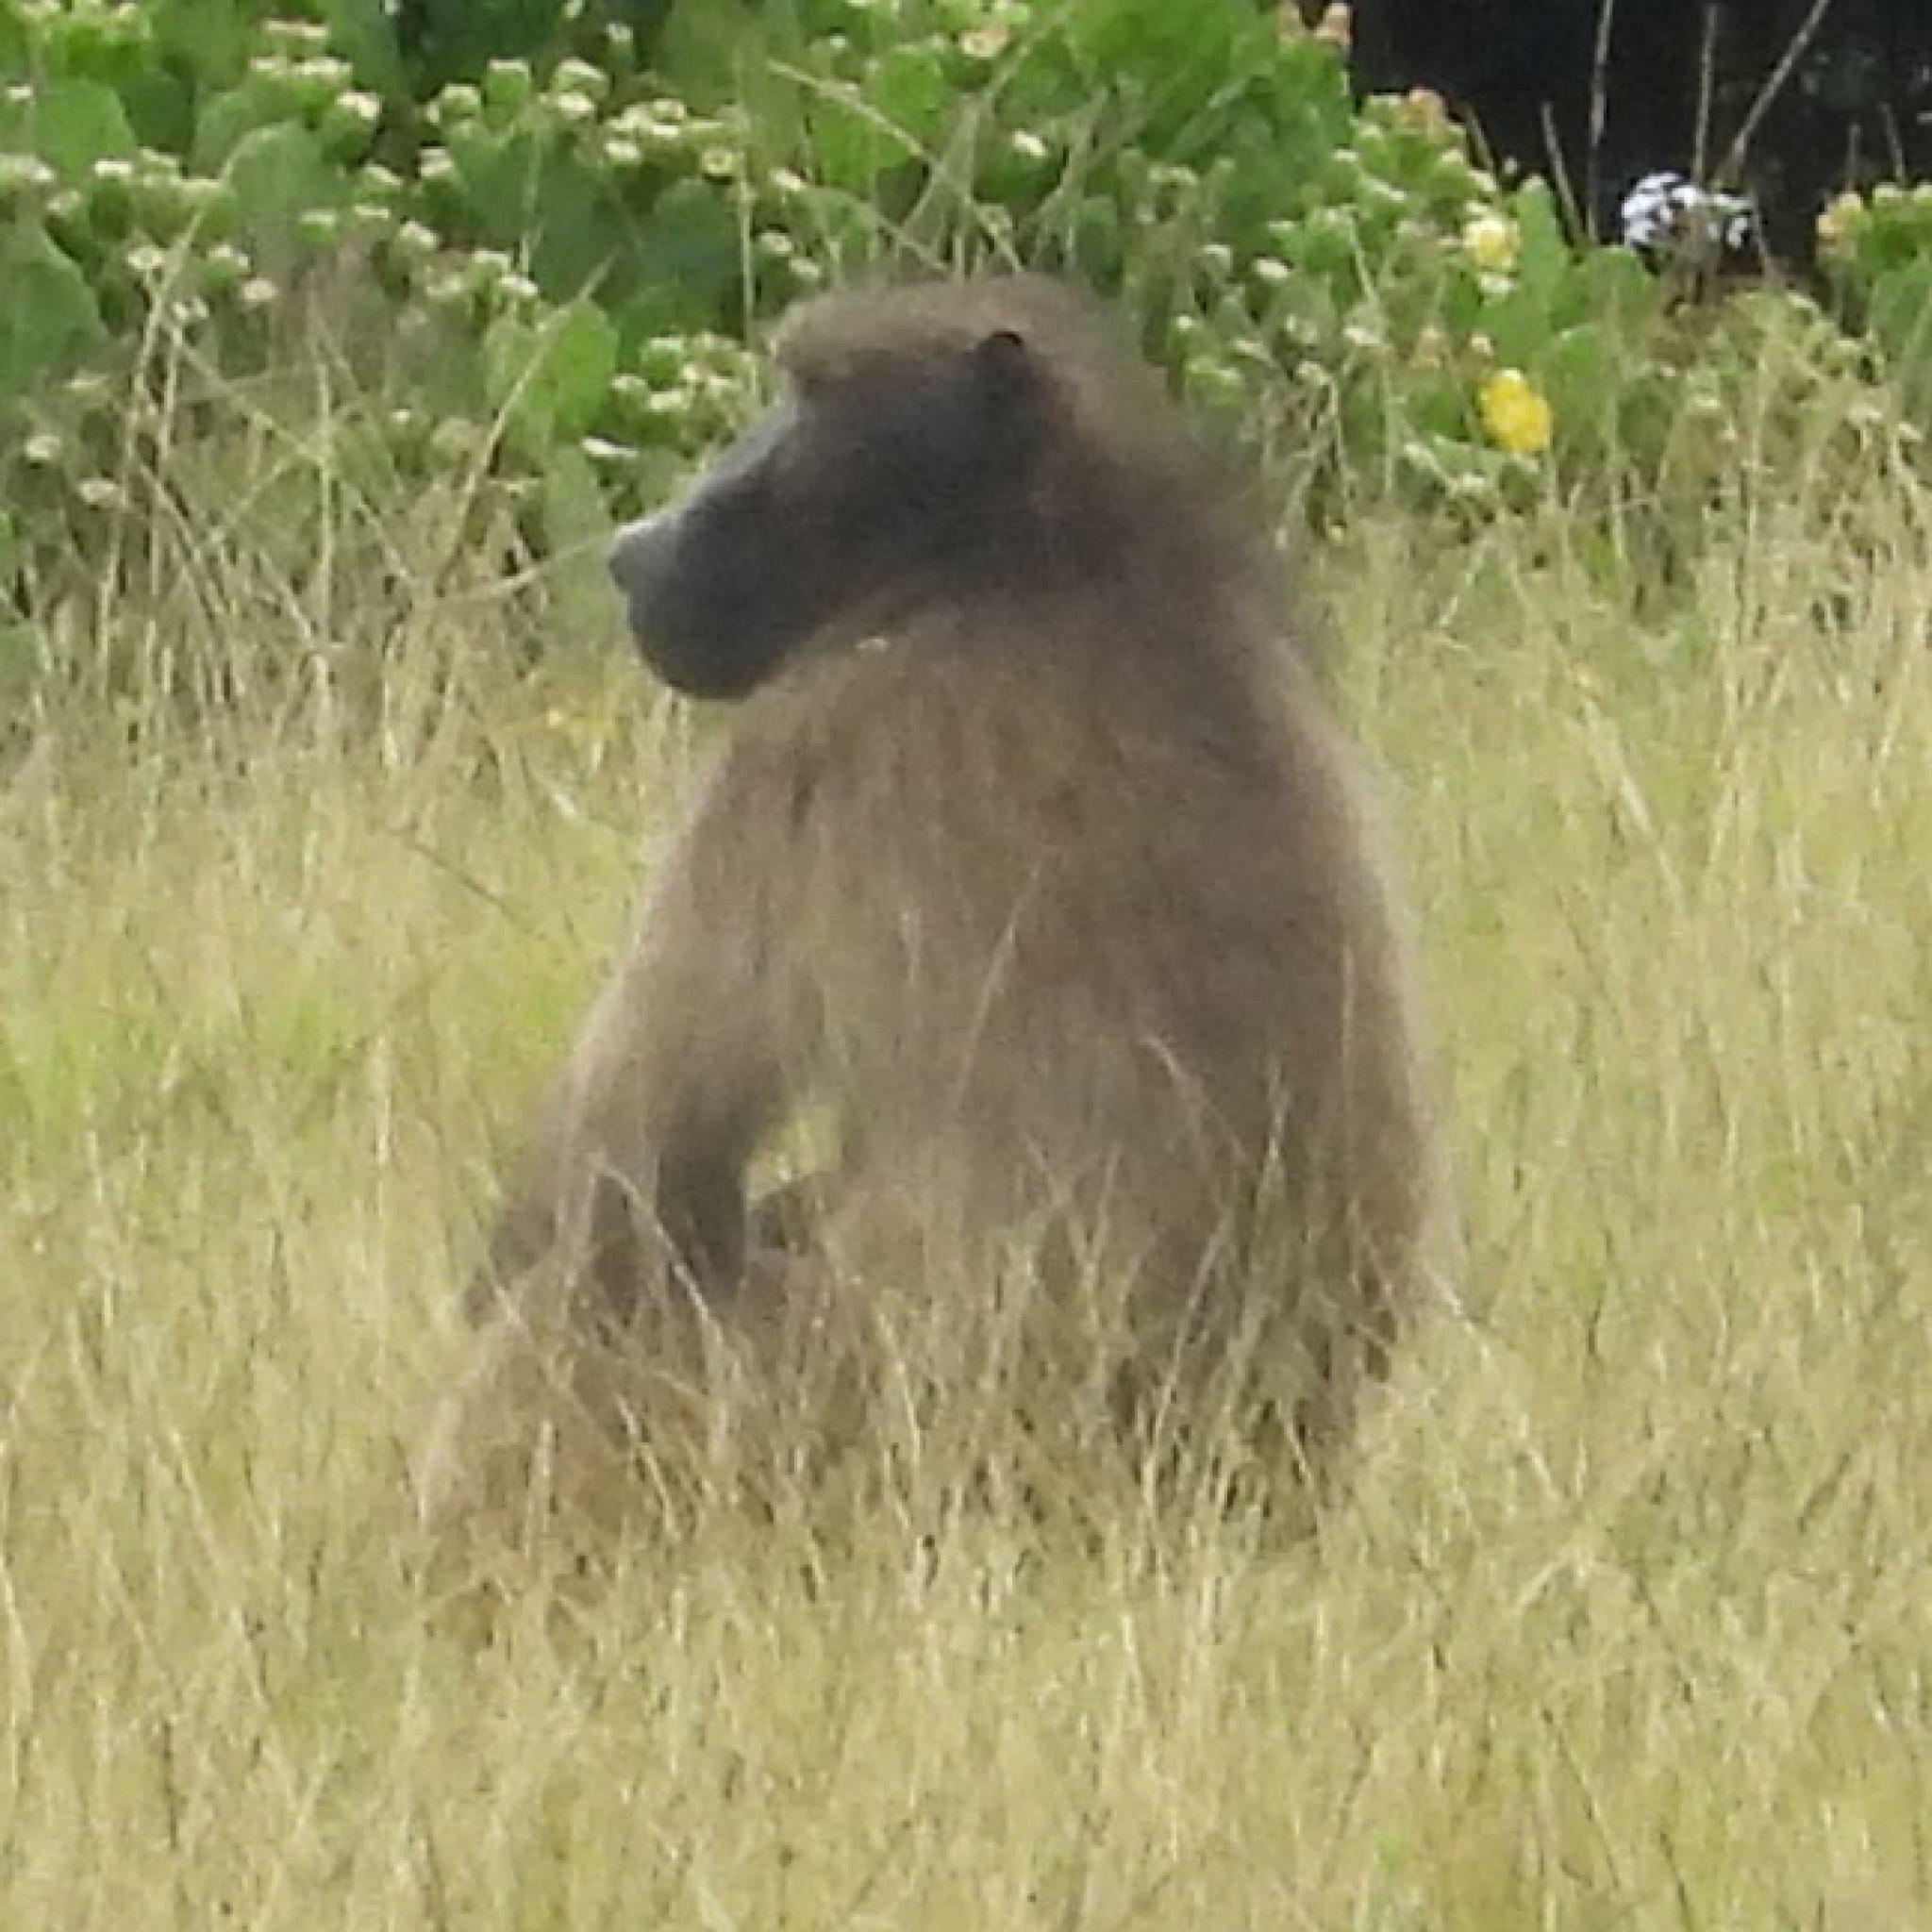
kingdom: Animalia
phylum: Chordata
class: Mammalia
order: Primates
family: Cercopithecidae
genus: Papio
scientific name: Papio ursinus
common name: Chacma baboon
